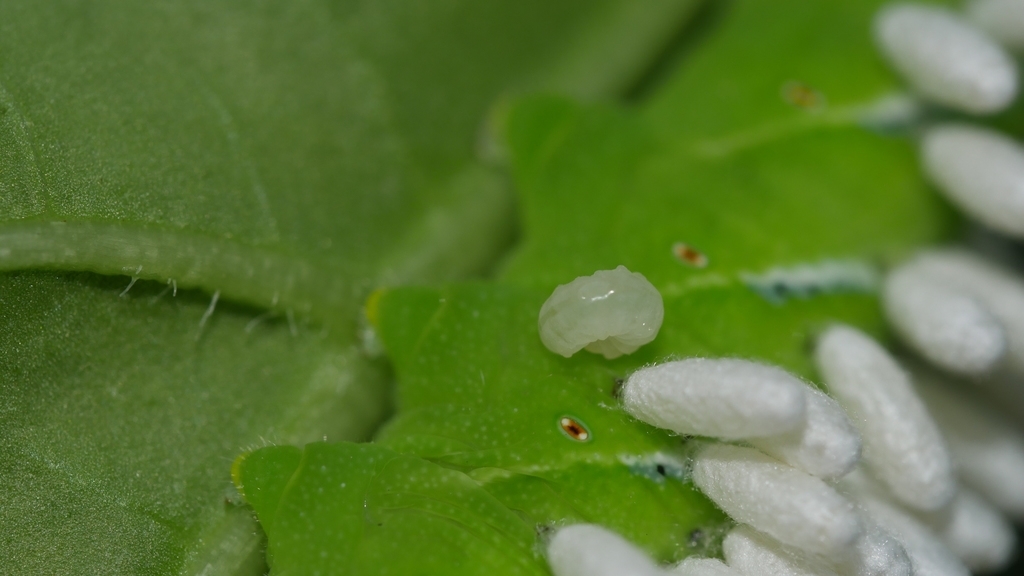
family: Polydnaviriformidae
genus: Bracoviriform
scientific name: Bracoviriform congregatae
